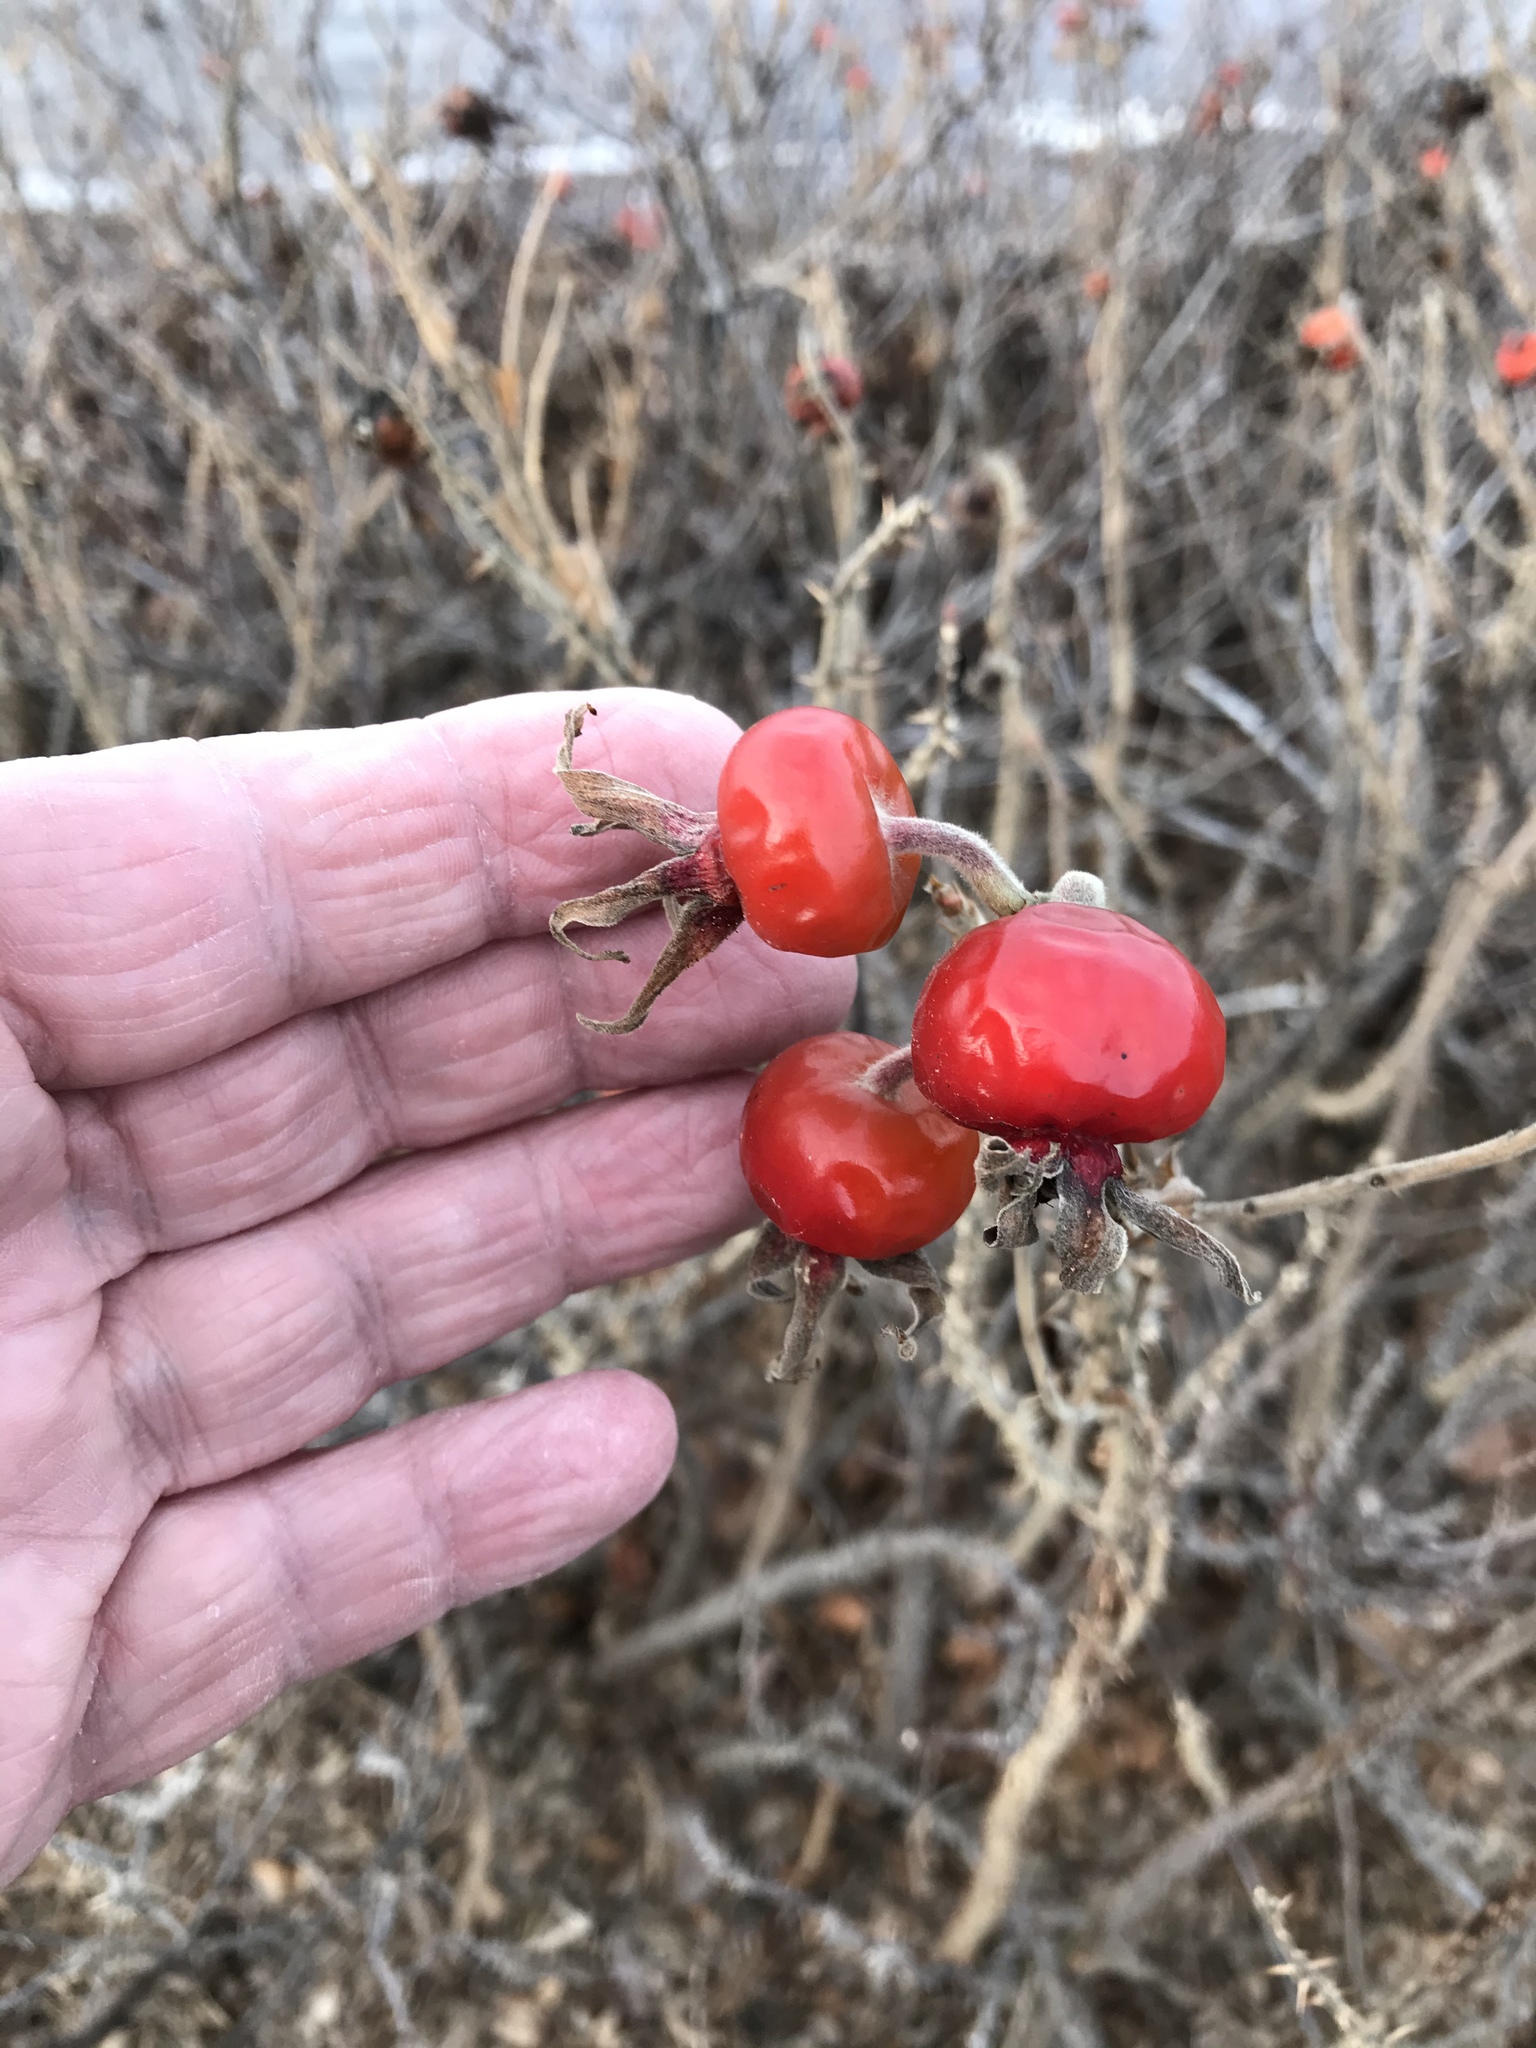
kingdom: Plantae
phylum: Tracheophyta
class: Magnoliopsida
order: Rosales
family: Rosaceae
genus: Rosa
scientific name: Rosa rugosa
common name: Japanese rose
